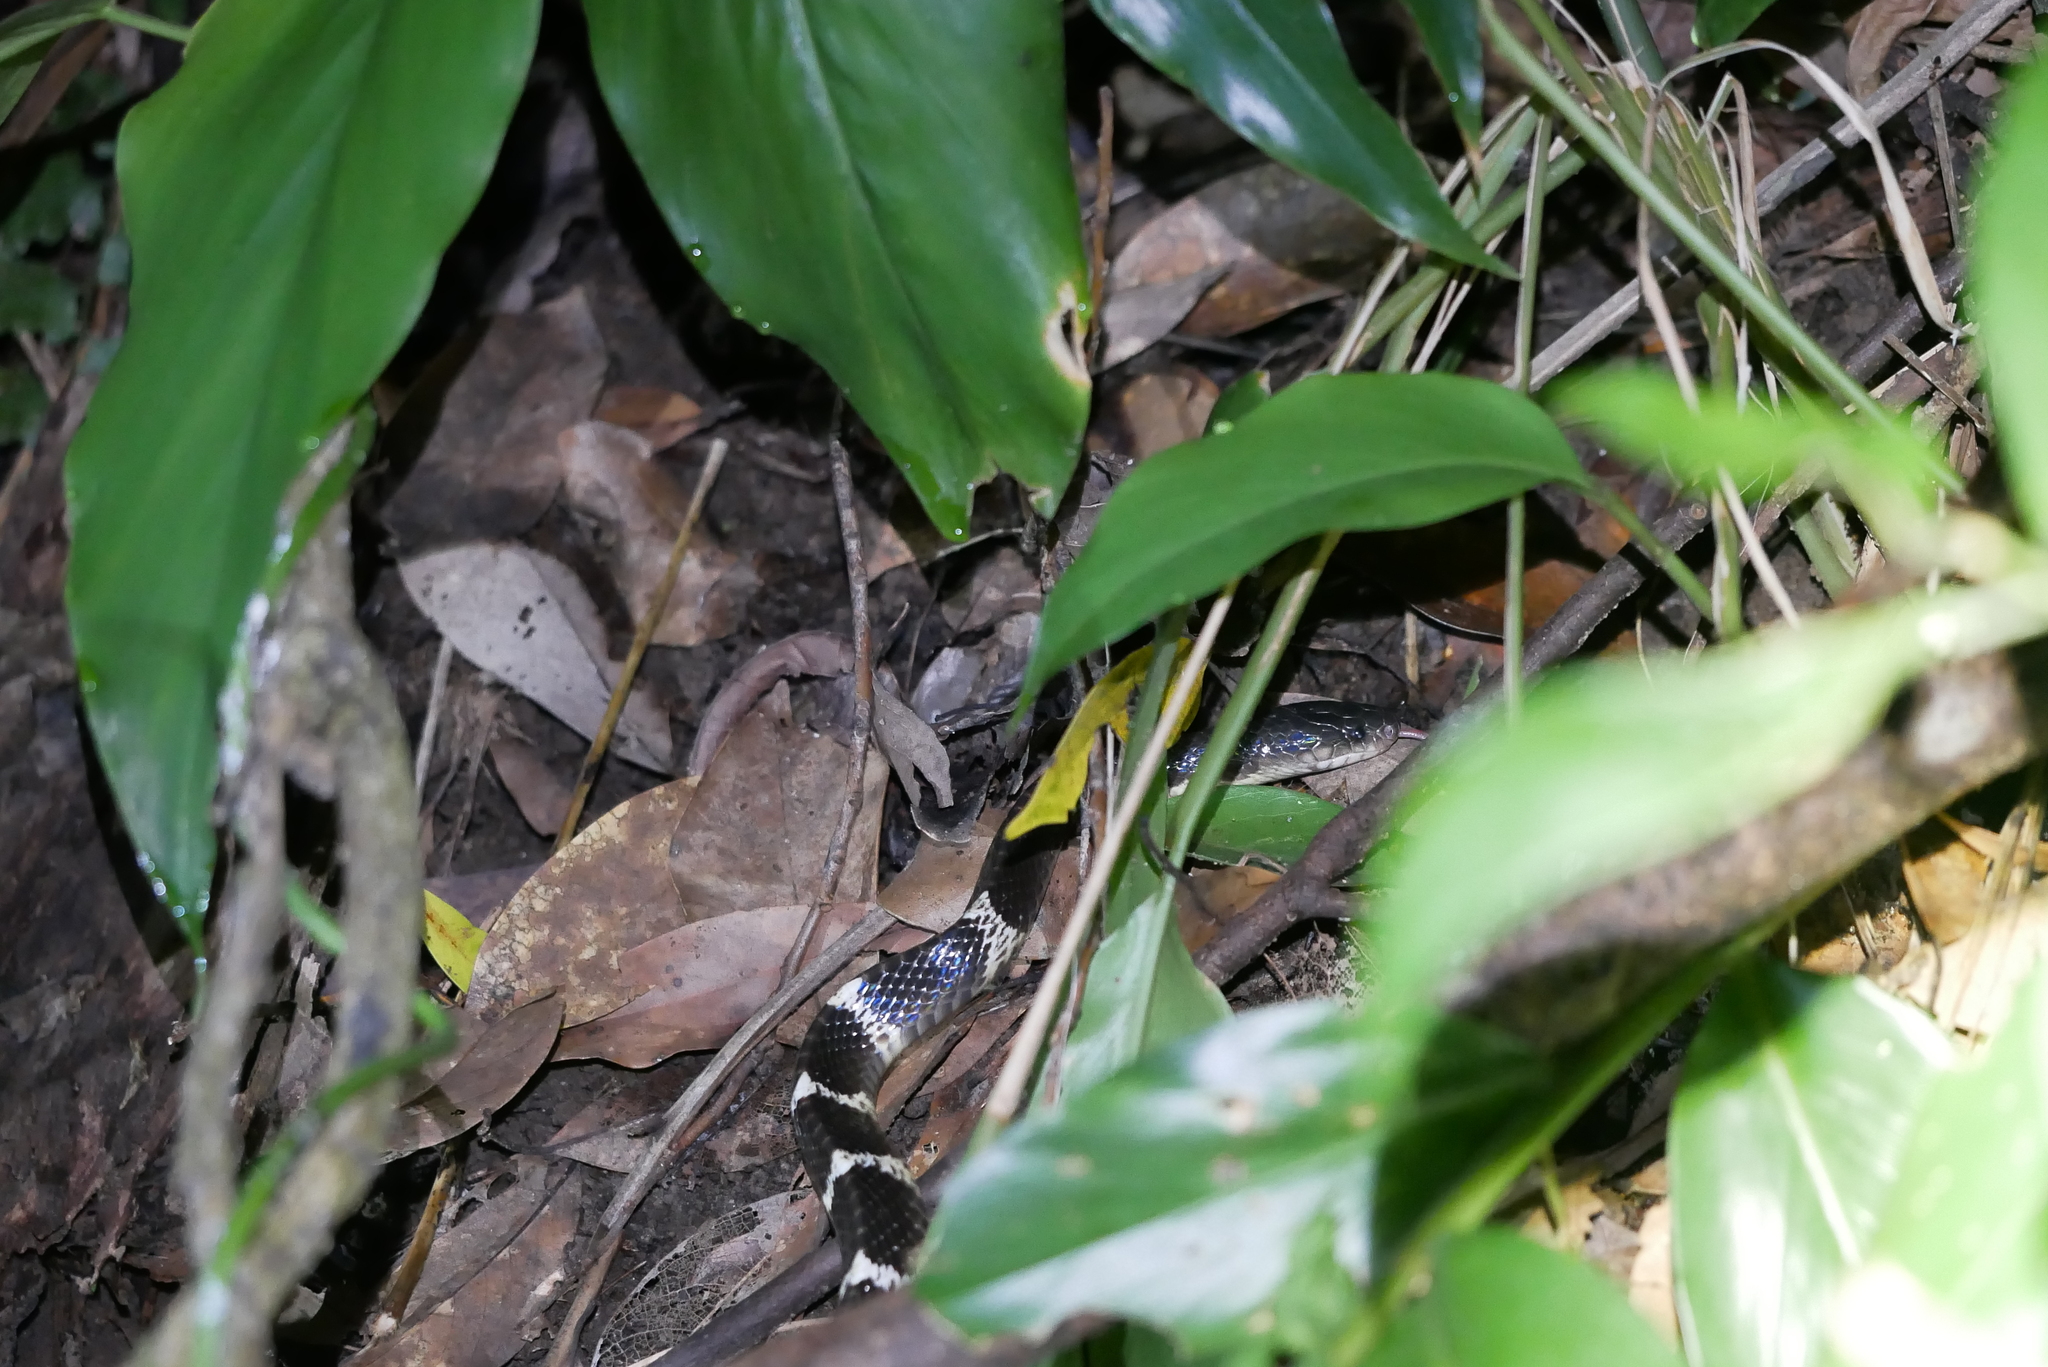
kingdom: Animalia
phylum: Chordata
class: Squamata
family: Elapidae
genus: Bungarus
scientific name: Bungarus multicinctus
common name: Many-banded krait
